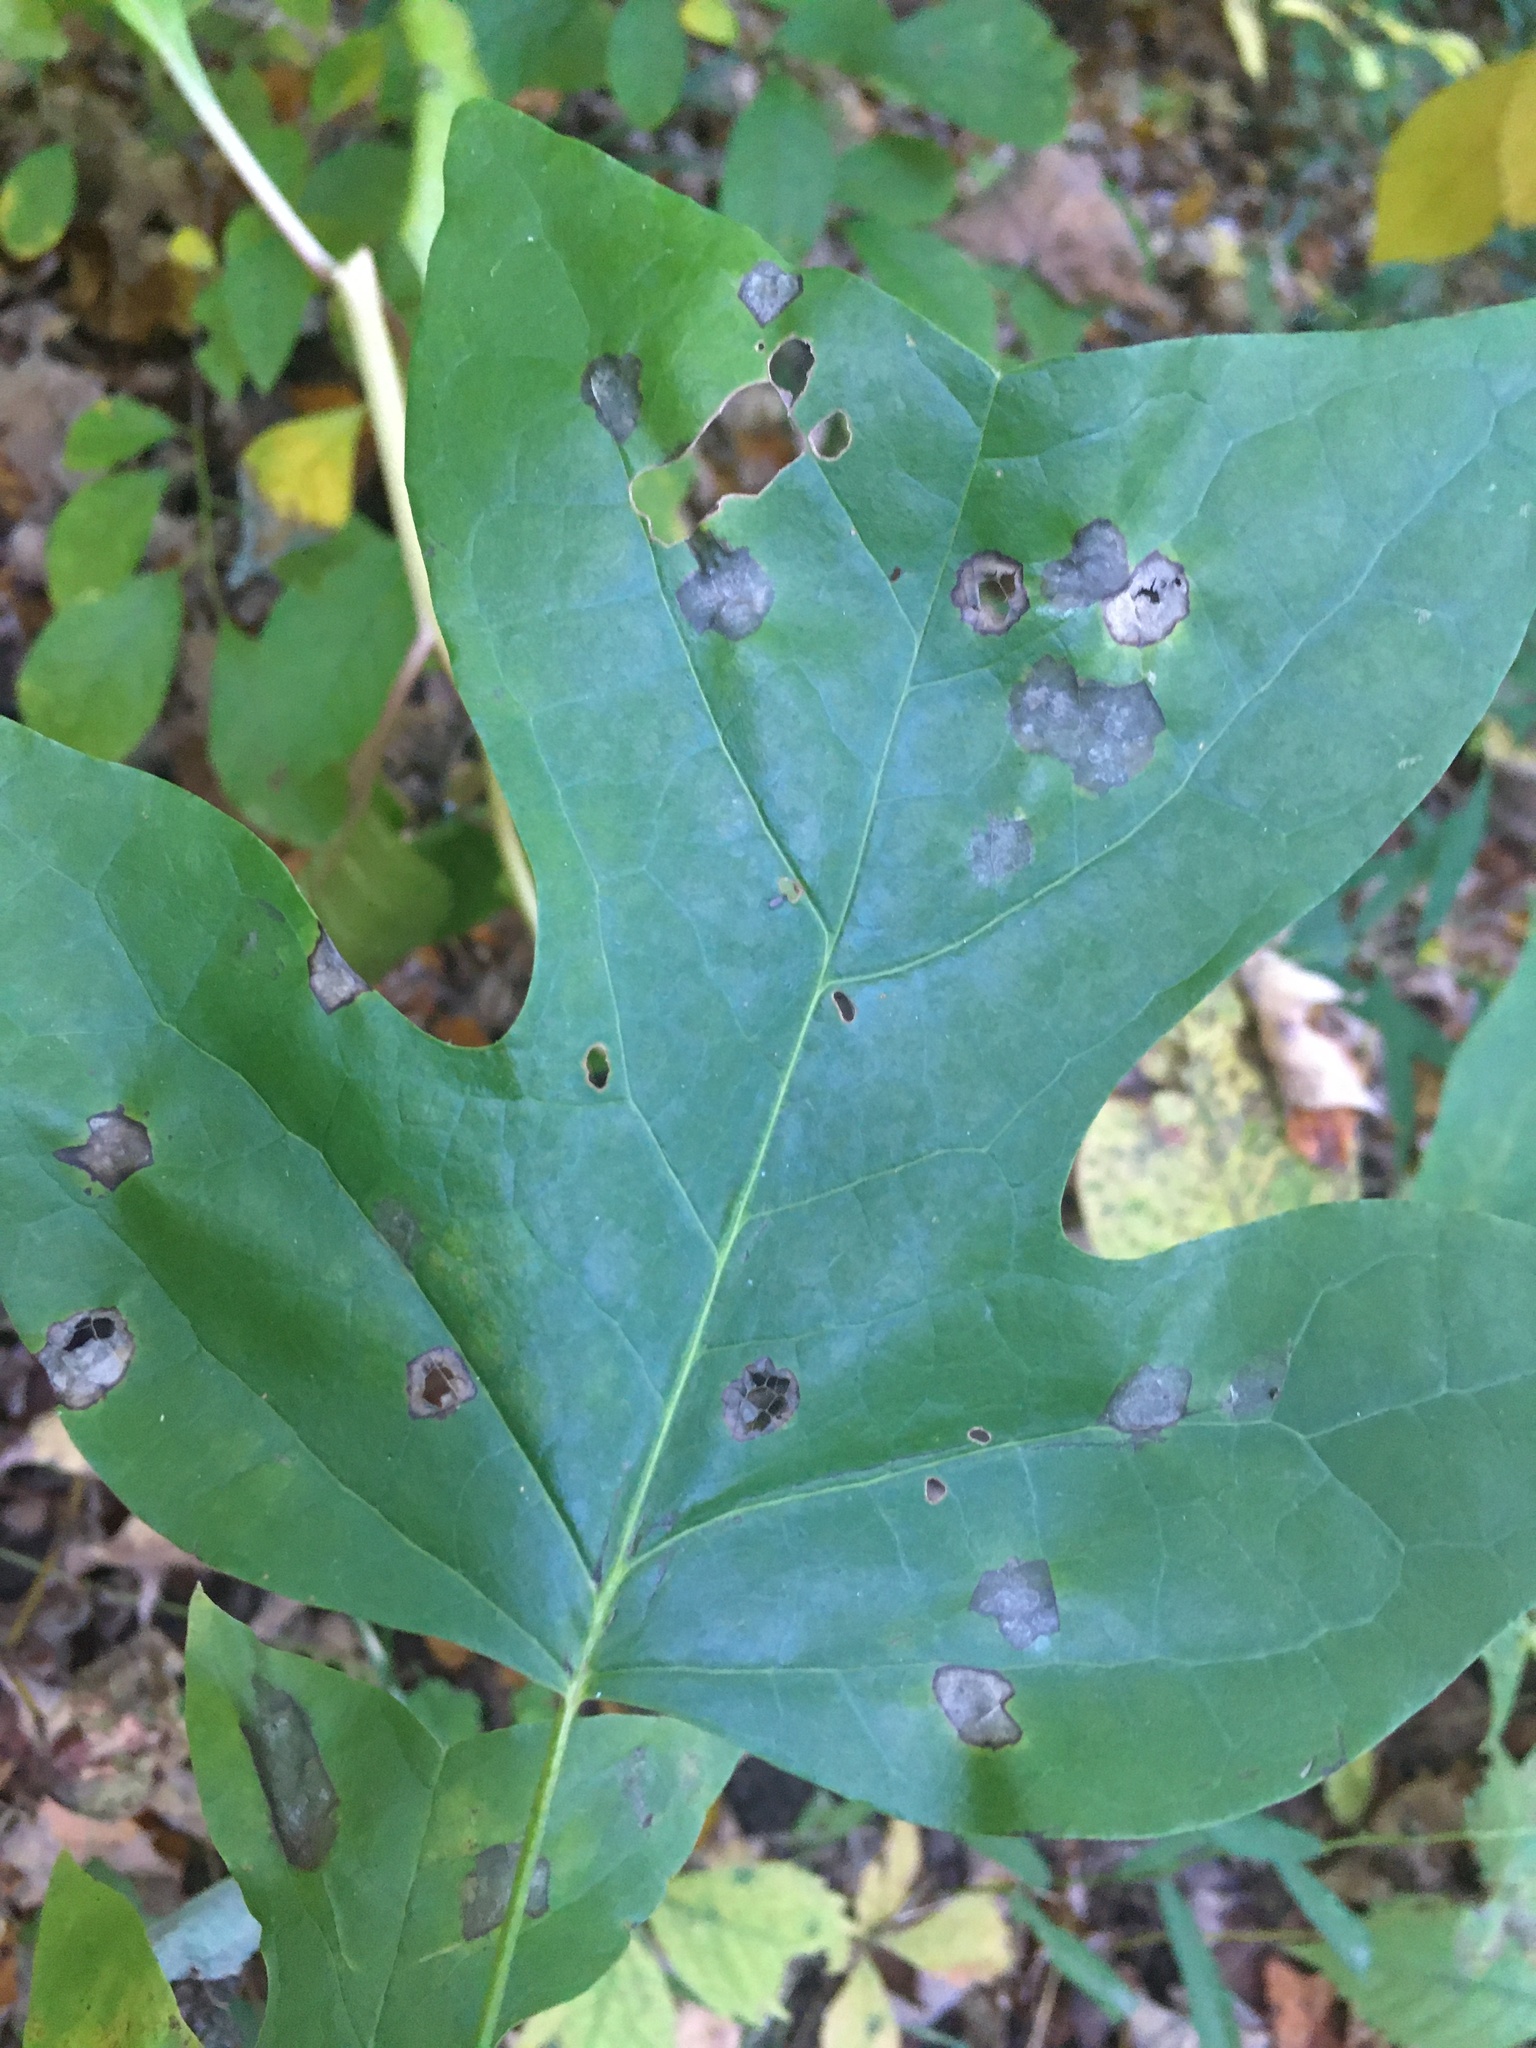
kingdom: Plantae
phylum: Tracheophyta
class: Magnoliopsida
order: Magnoliales
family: Magnoliaceae
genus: Liriodendron
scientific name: Liriodendron tulipifera
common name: Tulip tree
